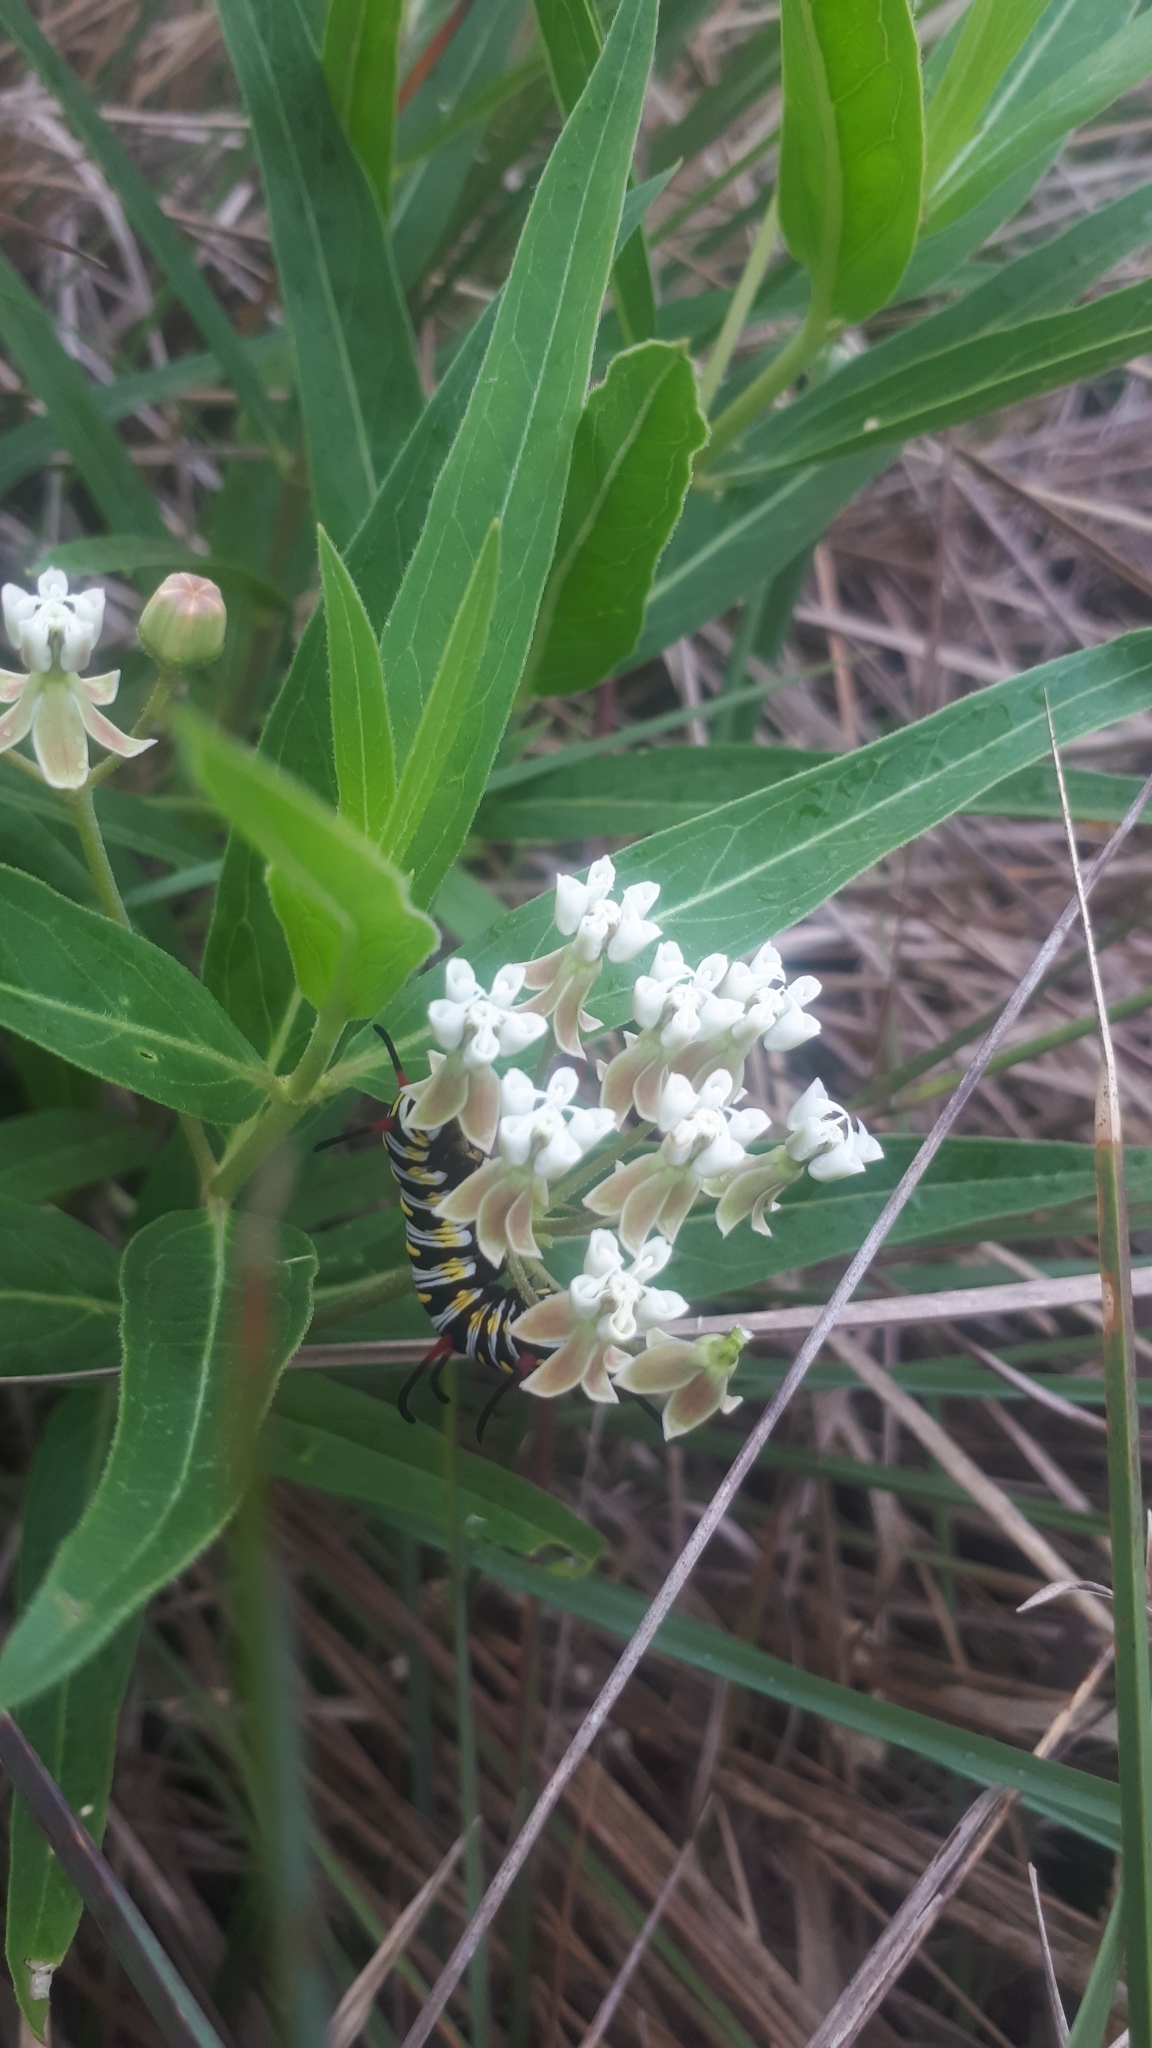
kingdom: Plantae
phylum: Tracheophyta
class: Magnoliopsida
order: Gentianales
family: Apocynaceae
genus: Asclepias
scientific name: Asclepias mellodora
